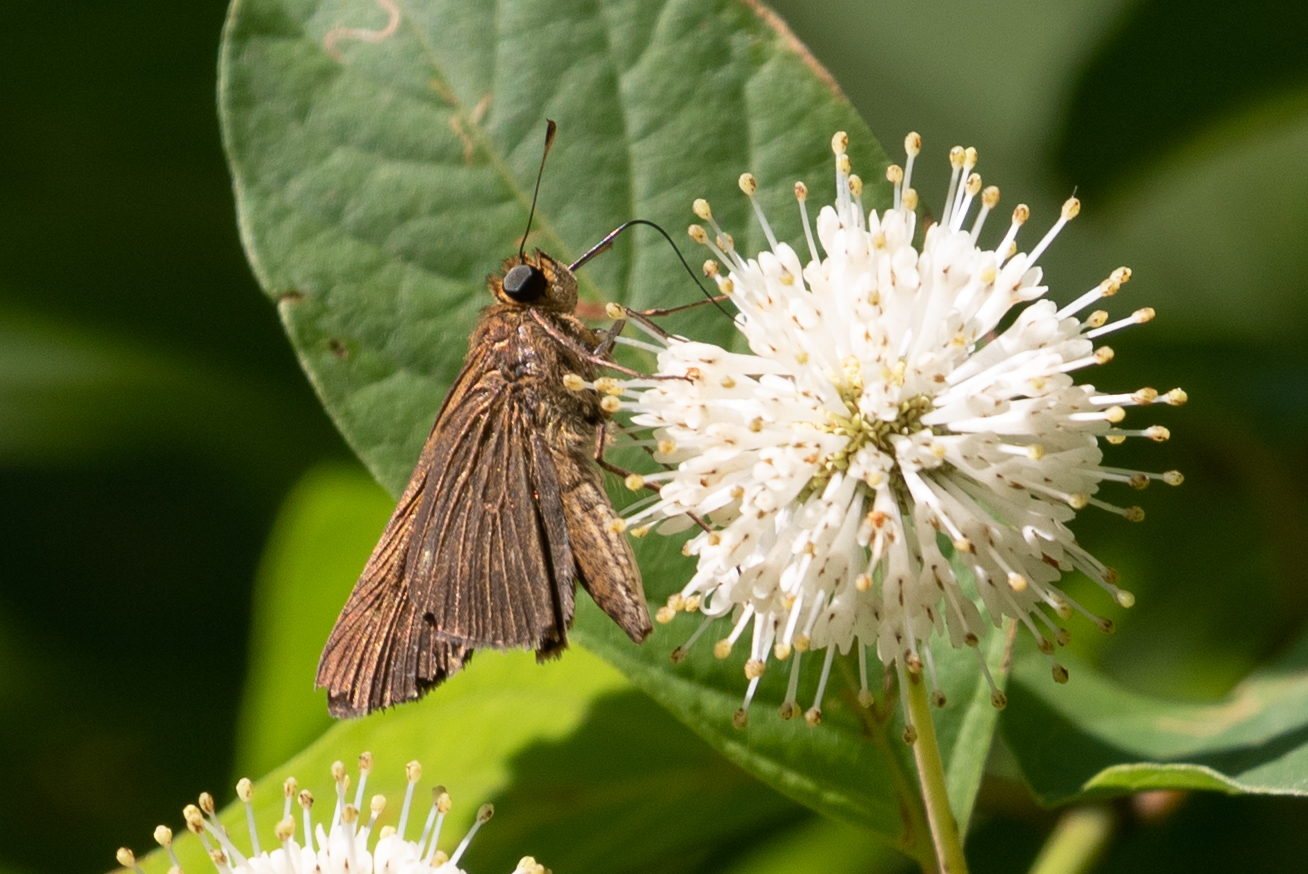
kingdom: Animalia
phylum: Arthropoda
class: Insecta
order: Lepidoptera
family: Hesperiidae
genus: Panoquina
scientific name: Panoquina ocola
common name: Ocola skipper
